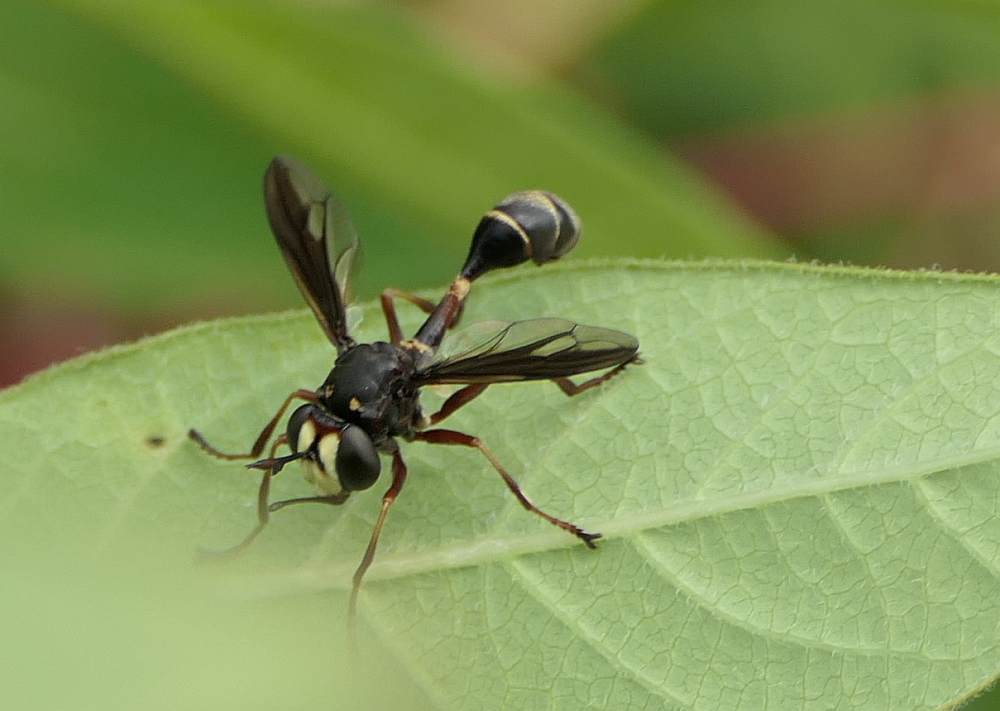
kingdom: Animalia
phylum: Arthropoda
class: Insecta
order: Diptera
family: Conopidae
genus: Physocephala
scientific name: Physocephala furcillata
